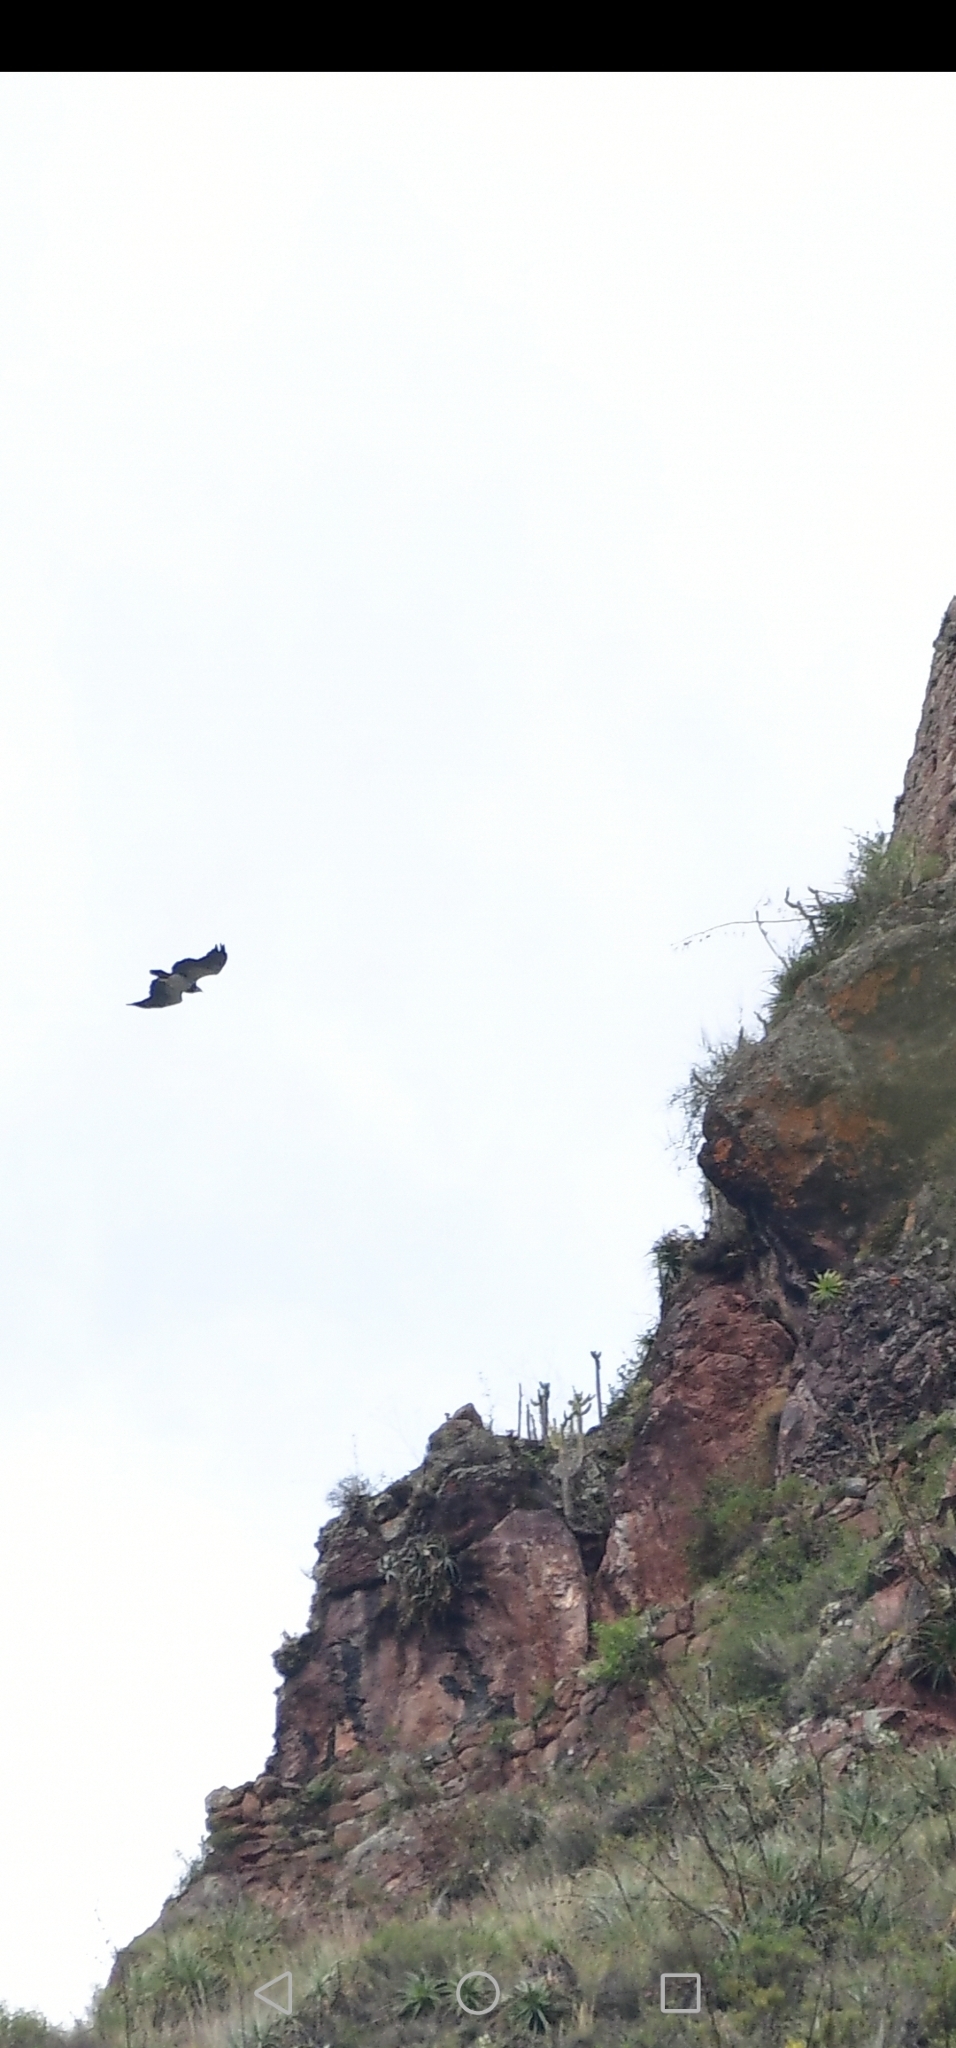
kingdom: Animalia
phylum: Chordata
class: Aves
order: Accipitriformes
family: Accipitridae
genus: Geranoaetus
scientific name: Geranoaetus melanoleucus
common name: Black-chested buzzard-eagle
